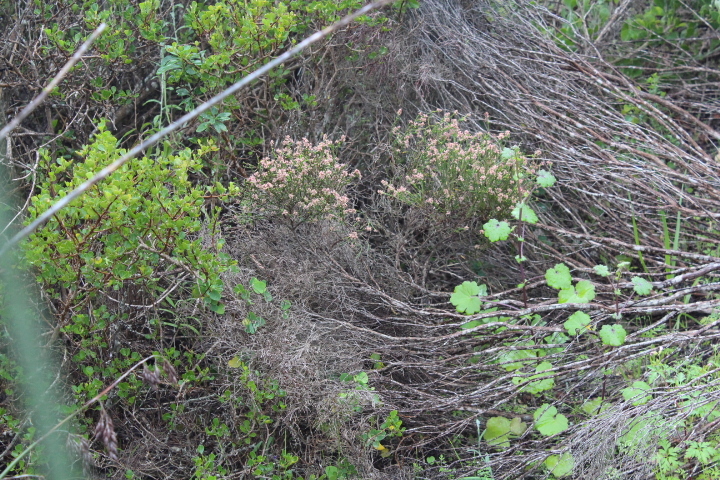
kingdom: Plantae
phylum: Tracheophyta
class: Magnoliopsida
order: Malvales
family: Thymelaeaceae
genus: Passerina
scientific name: Passerina paleacea
